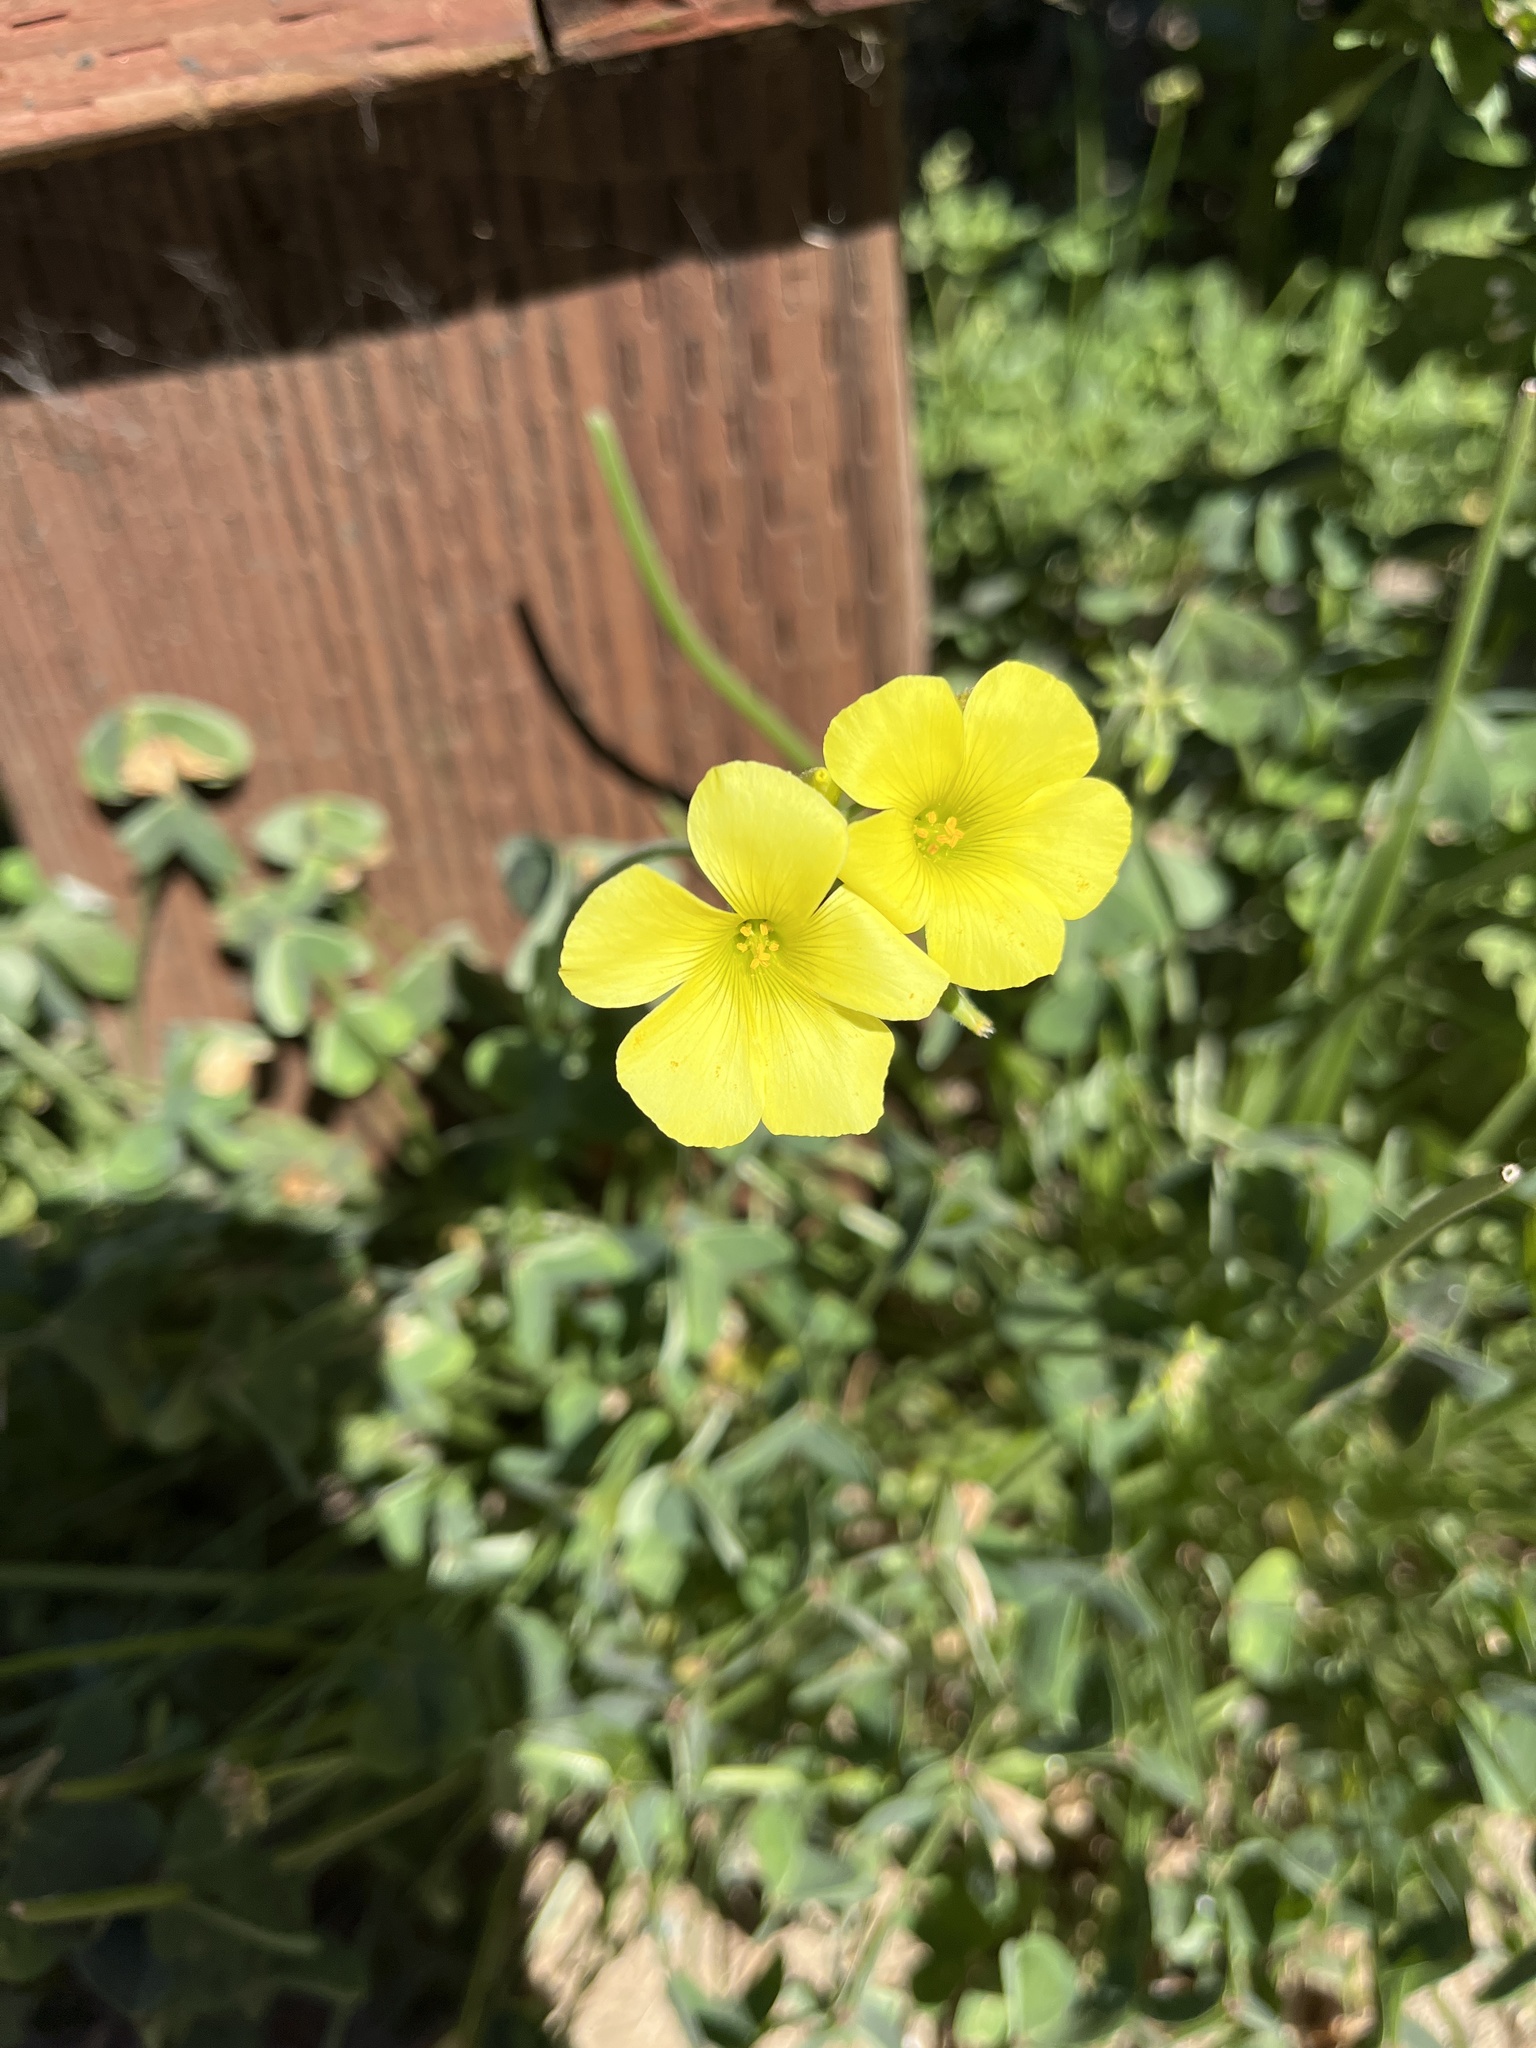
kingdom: Plantae
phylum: Tracheophyta
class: Magnoliopsida
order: Oxalidales
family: Oxalidaceae
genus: Oxalis
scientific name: Oxalis pes-caprae
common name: Bermuda-buttercup
